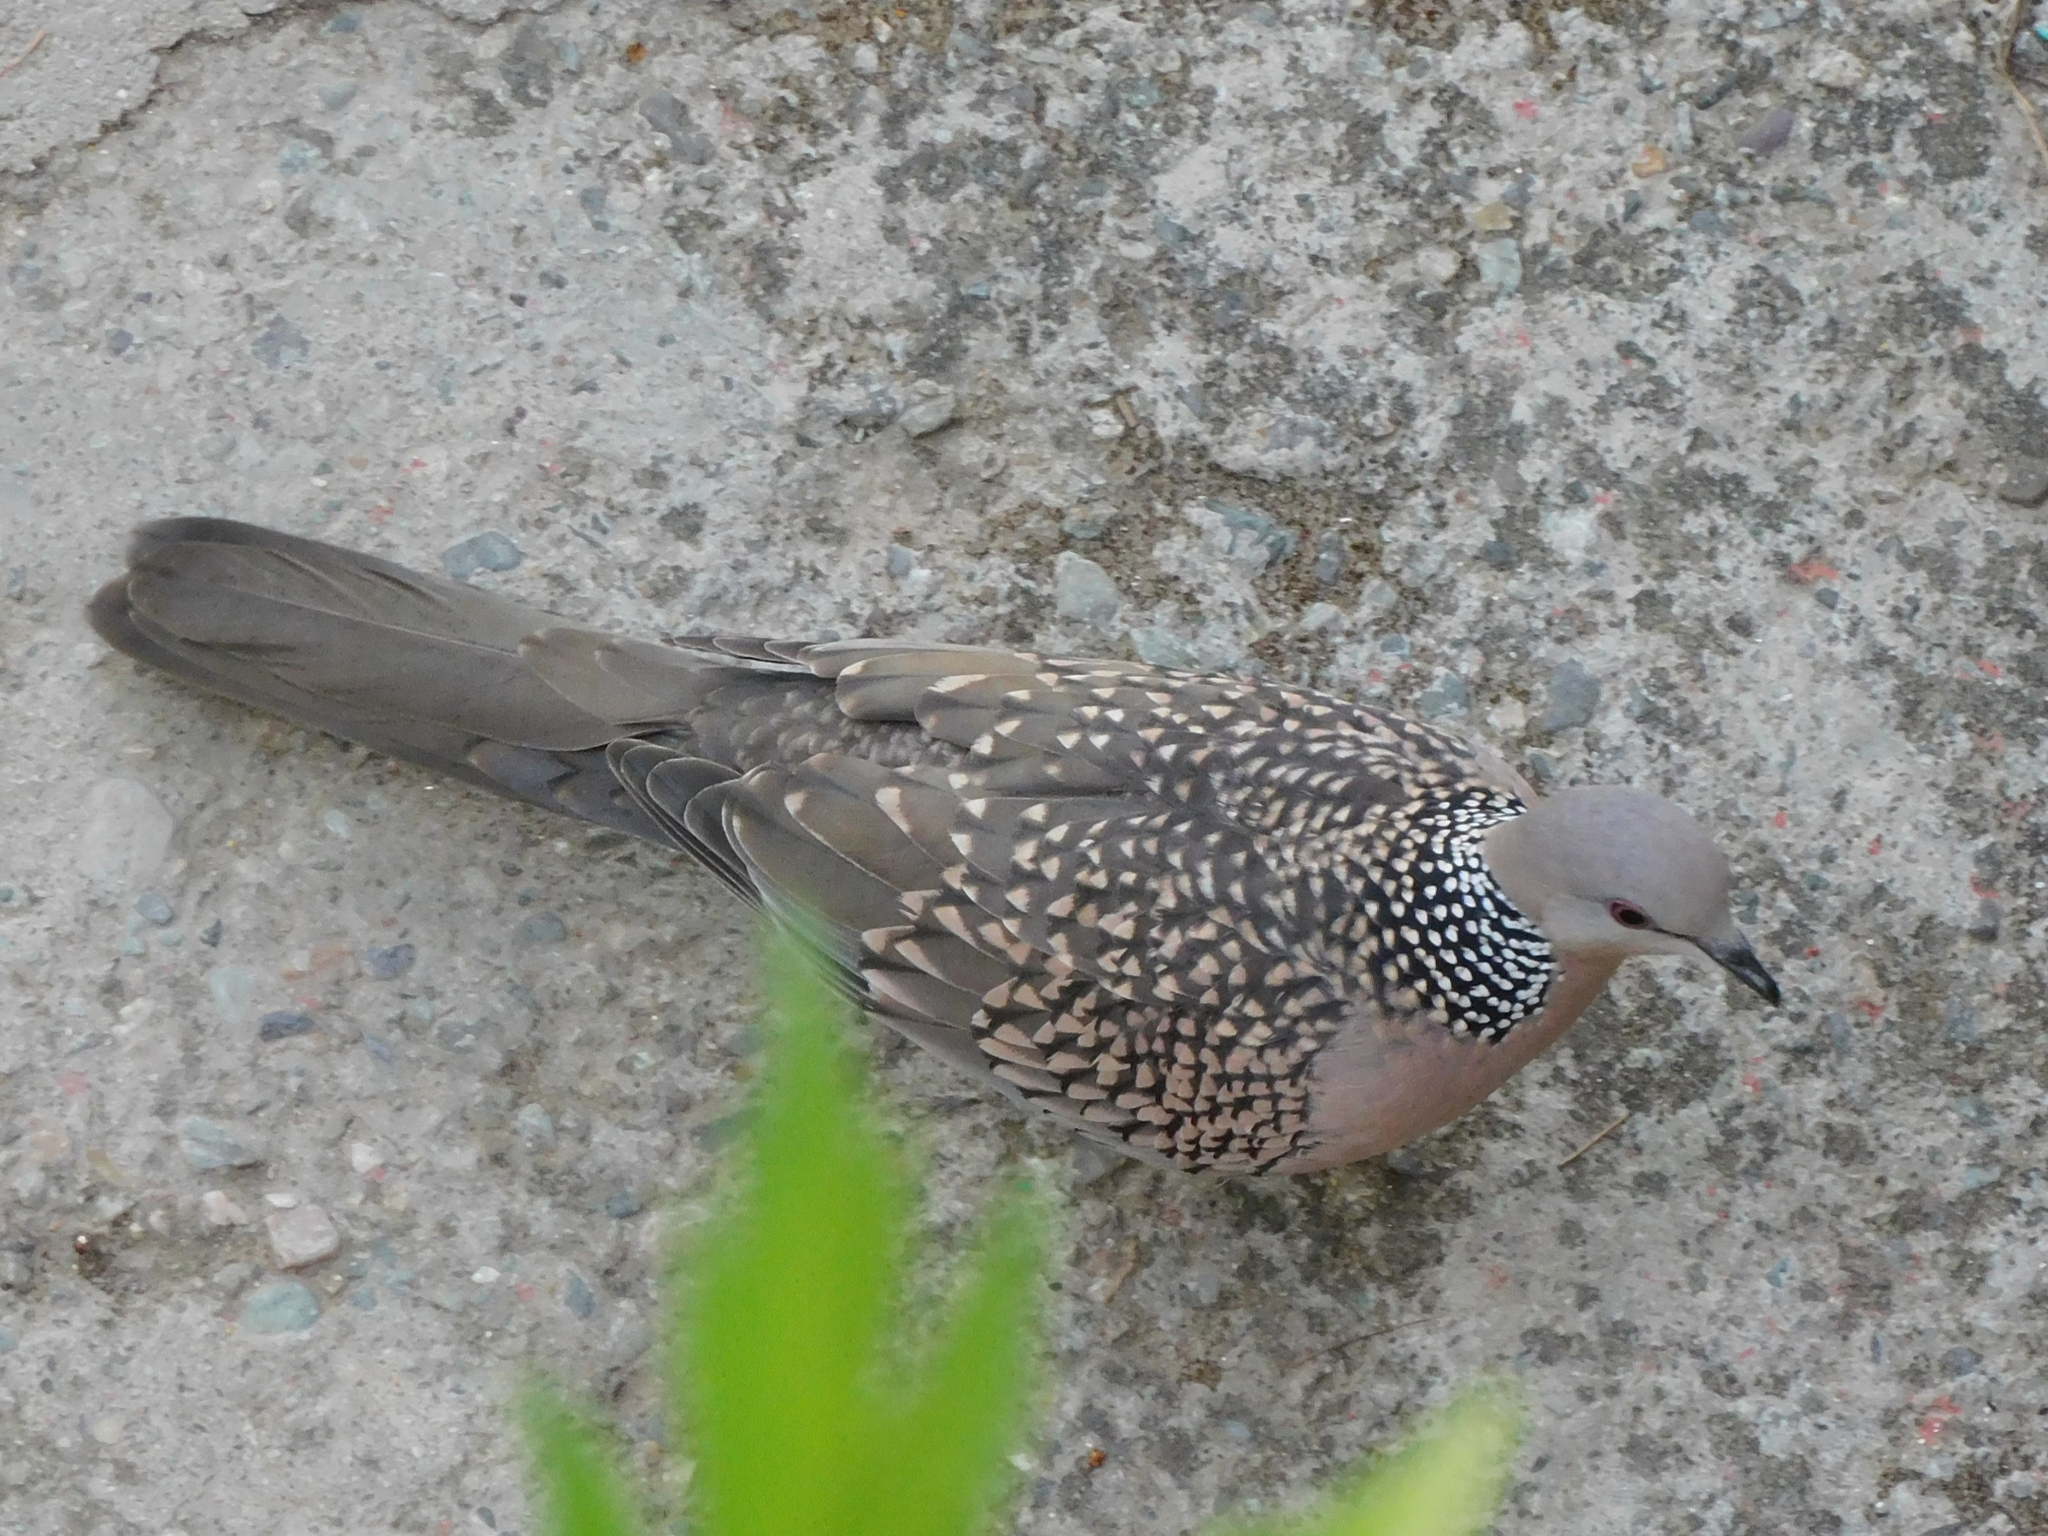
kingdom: Animalia
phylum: Chordata
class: Aves
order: Columbiformes
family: Columbidae
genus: Spilopelia
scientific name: Spilopelia chinensis
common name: Spotted dove
